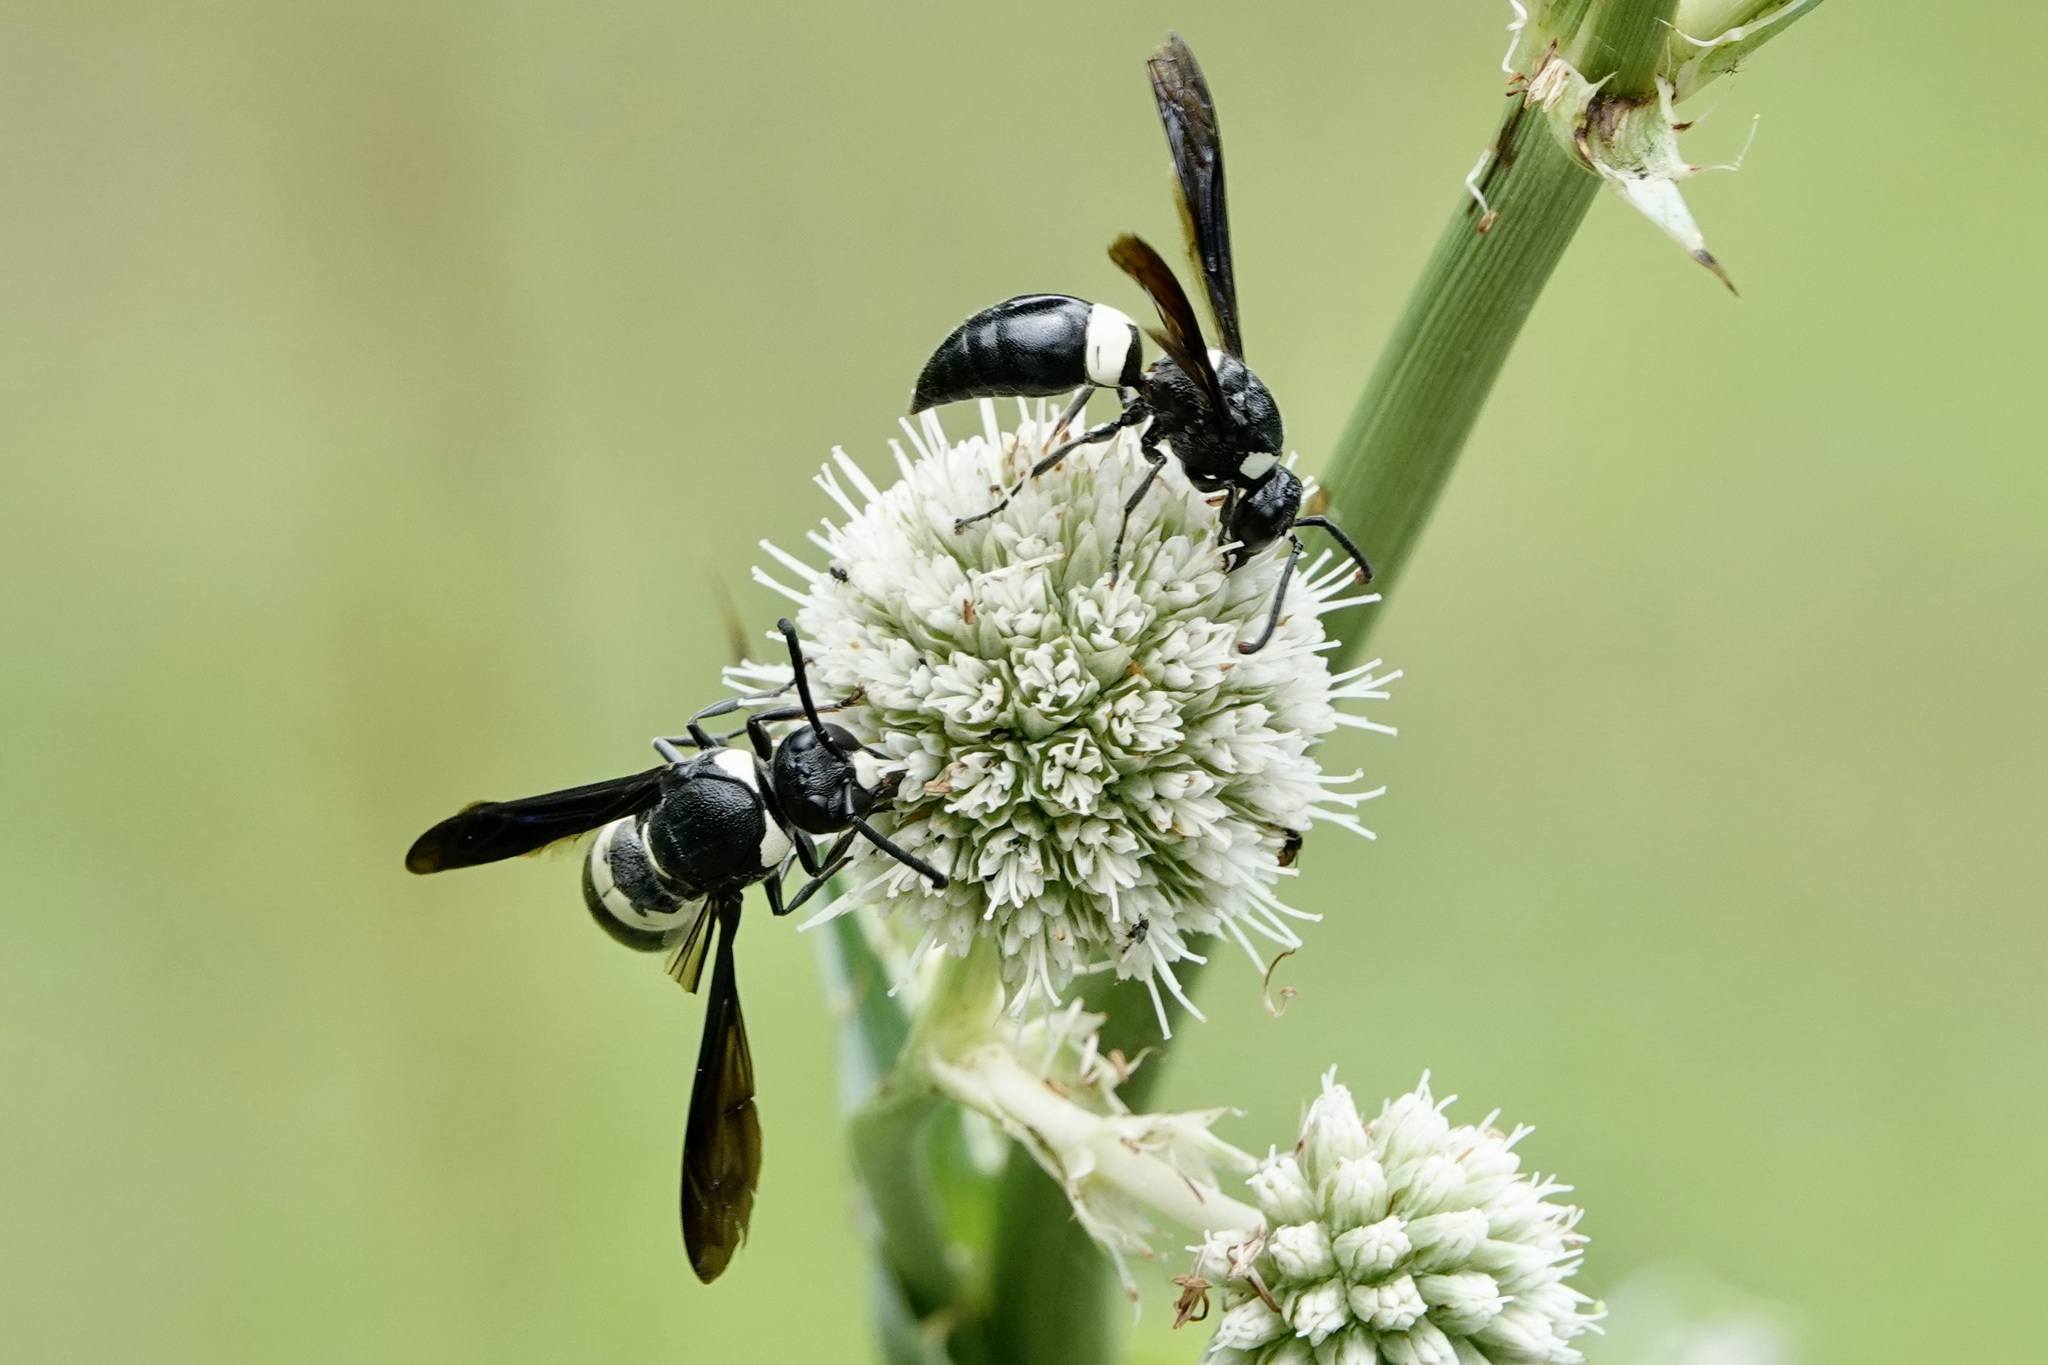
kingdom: Animalia
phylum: Arthropoda
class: Insecta
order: Hymenoptera
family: Eumenidae
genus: Monobia
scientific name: Monobia quadridens
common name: Four-toothed mason wasp
